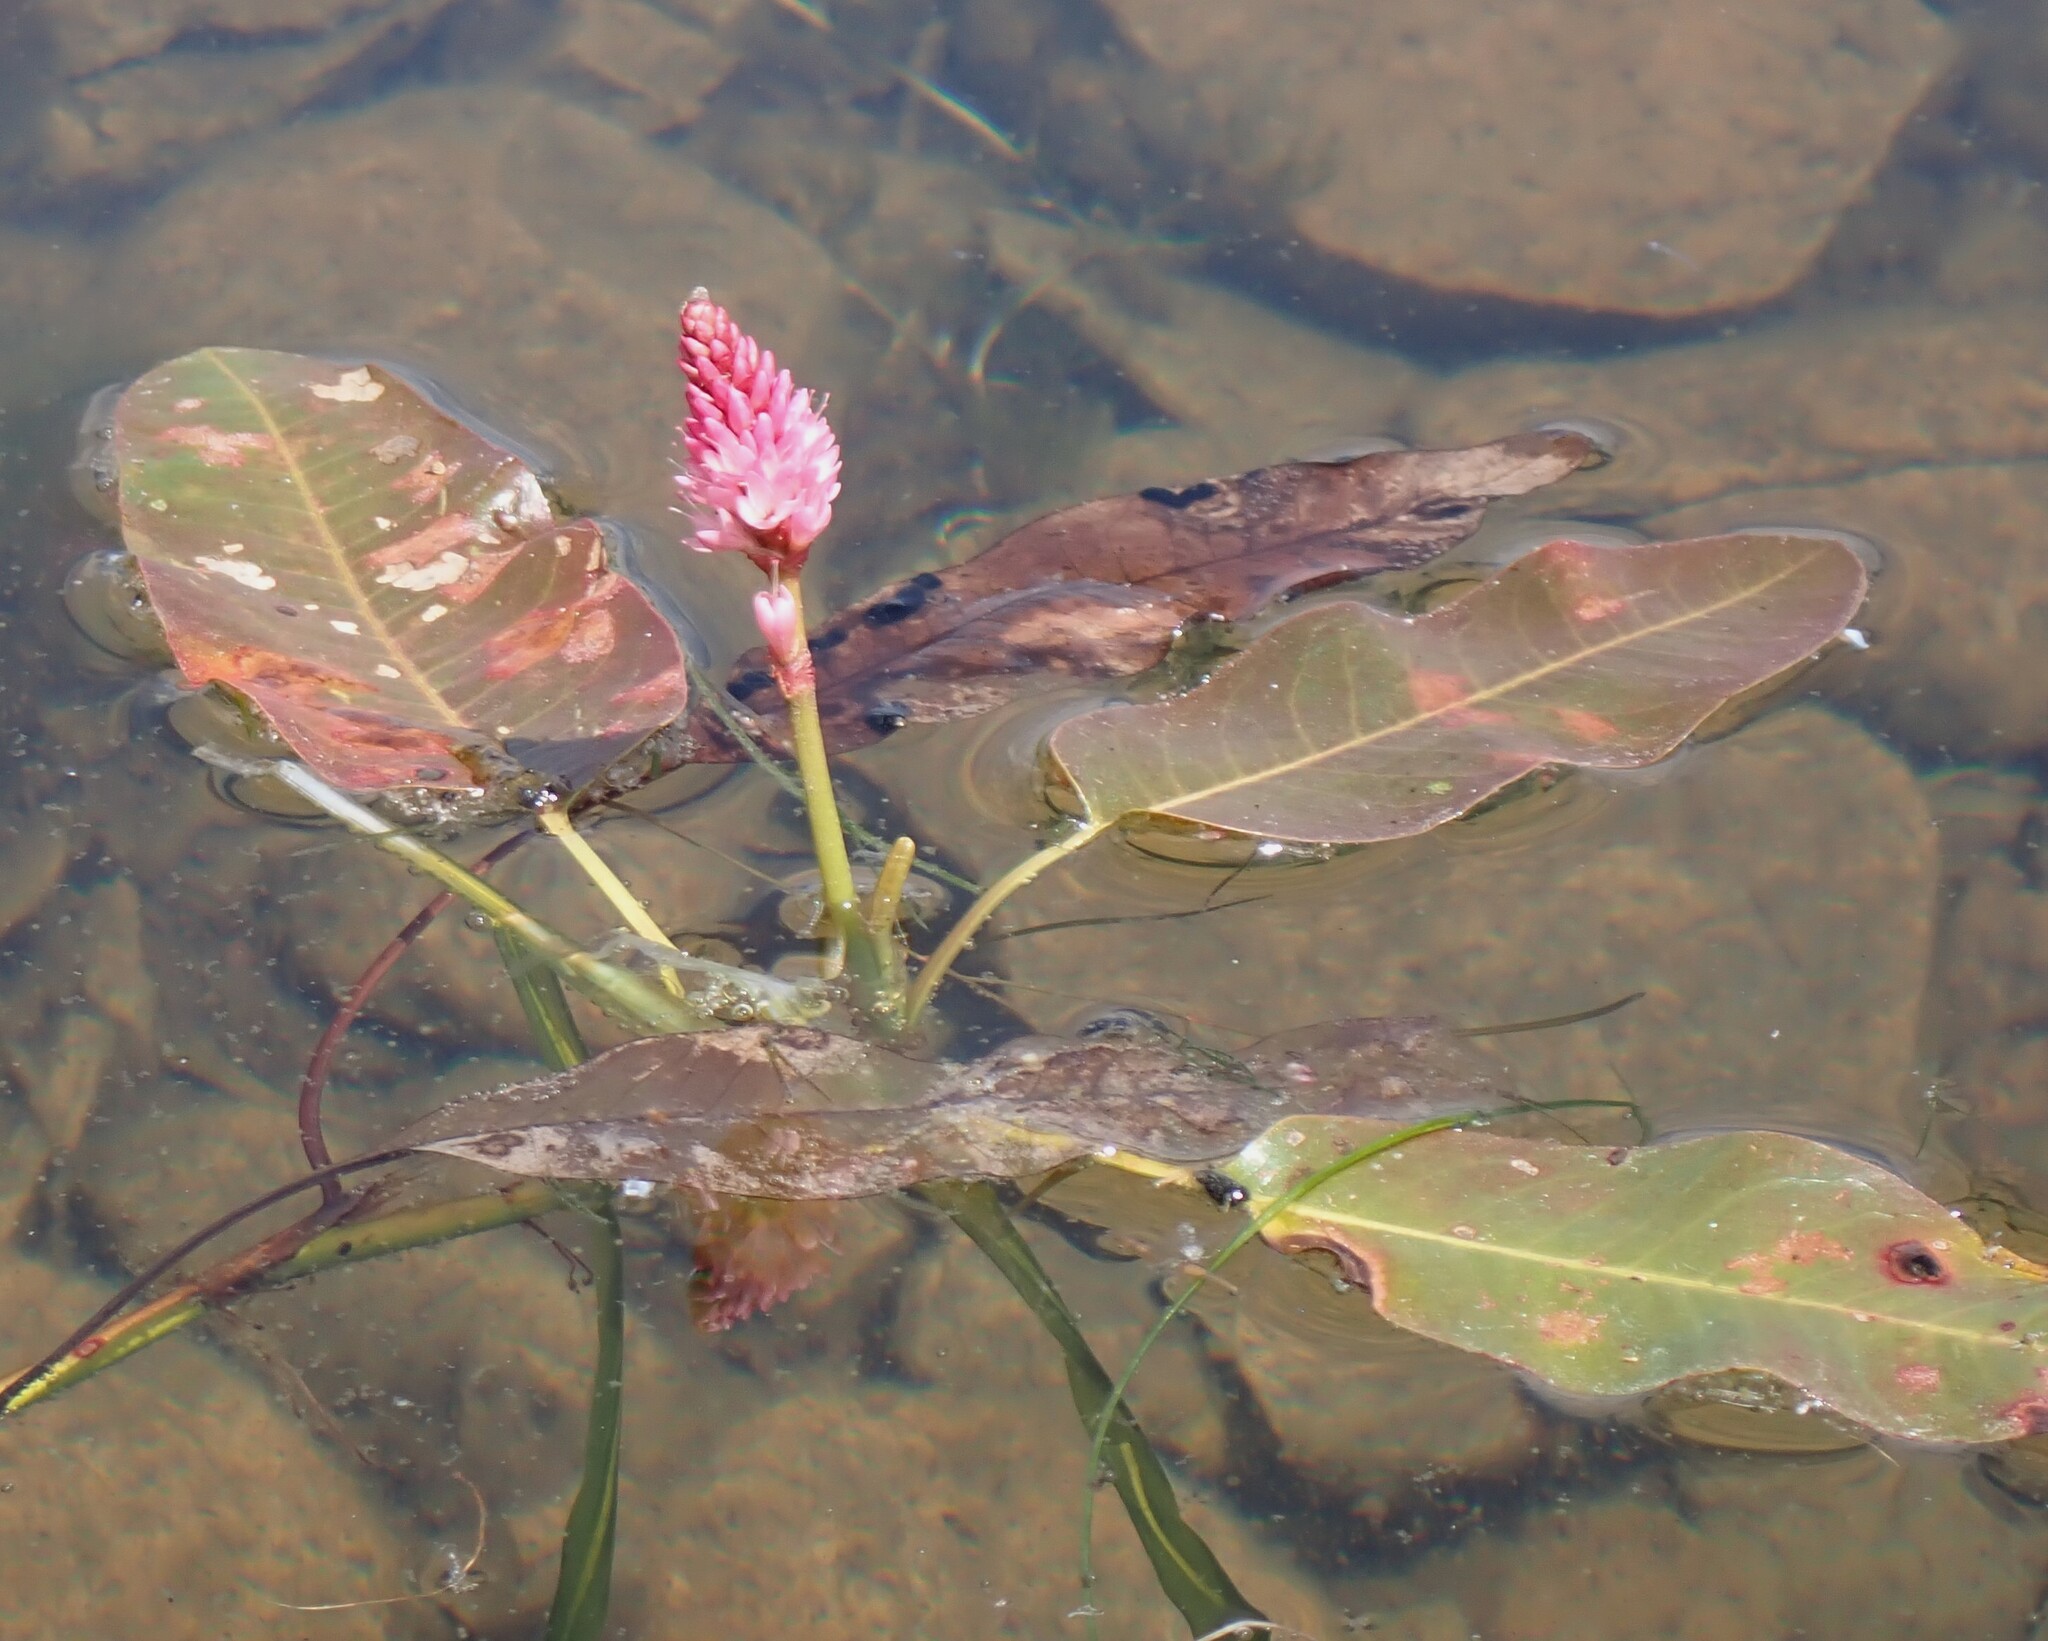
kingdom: Plantae
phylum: Tracheophyta
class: Magnoliopsida
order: Caryophyllales
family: Polygonaceae
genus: Persicaria
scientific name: Persicaria amphibia
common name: Amphibious bistort
